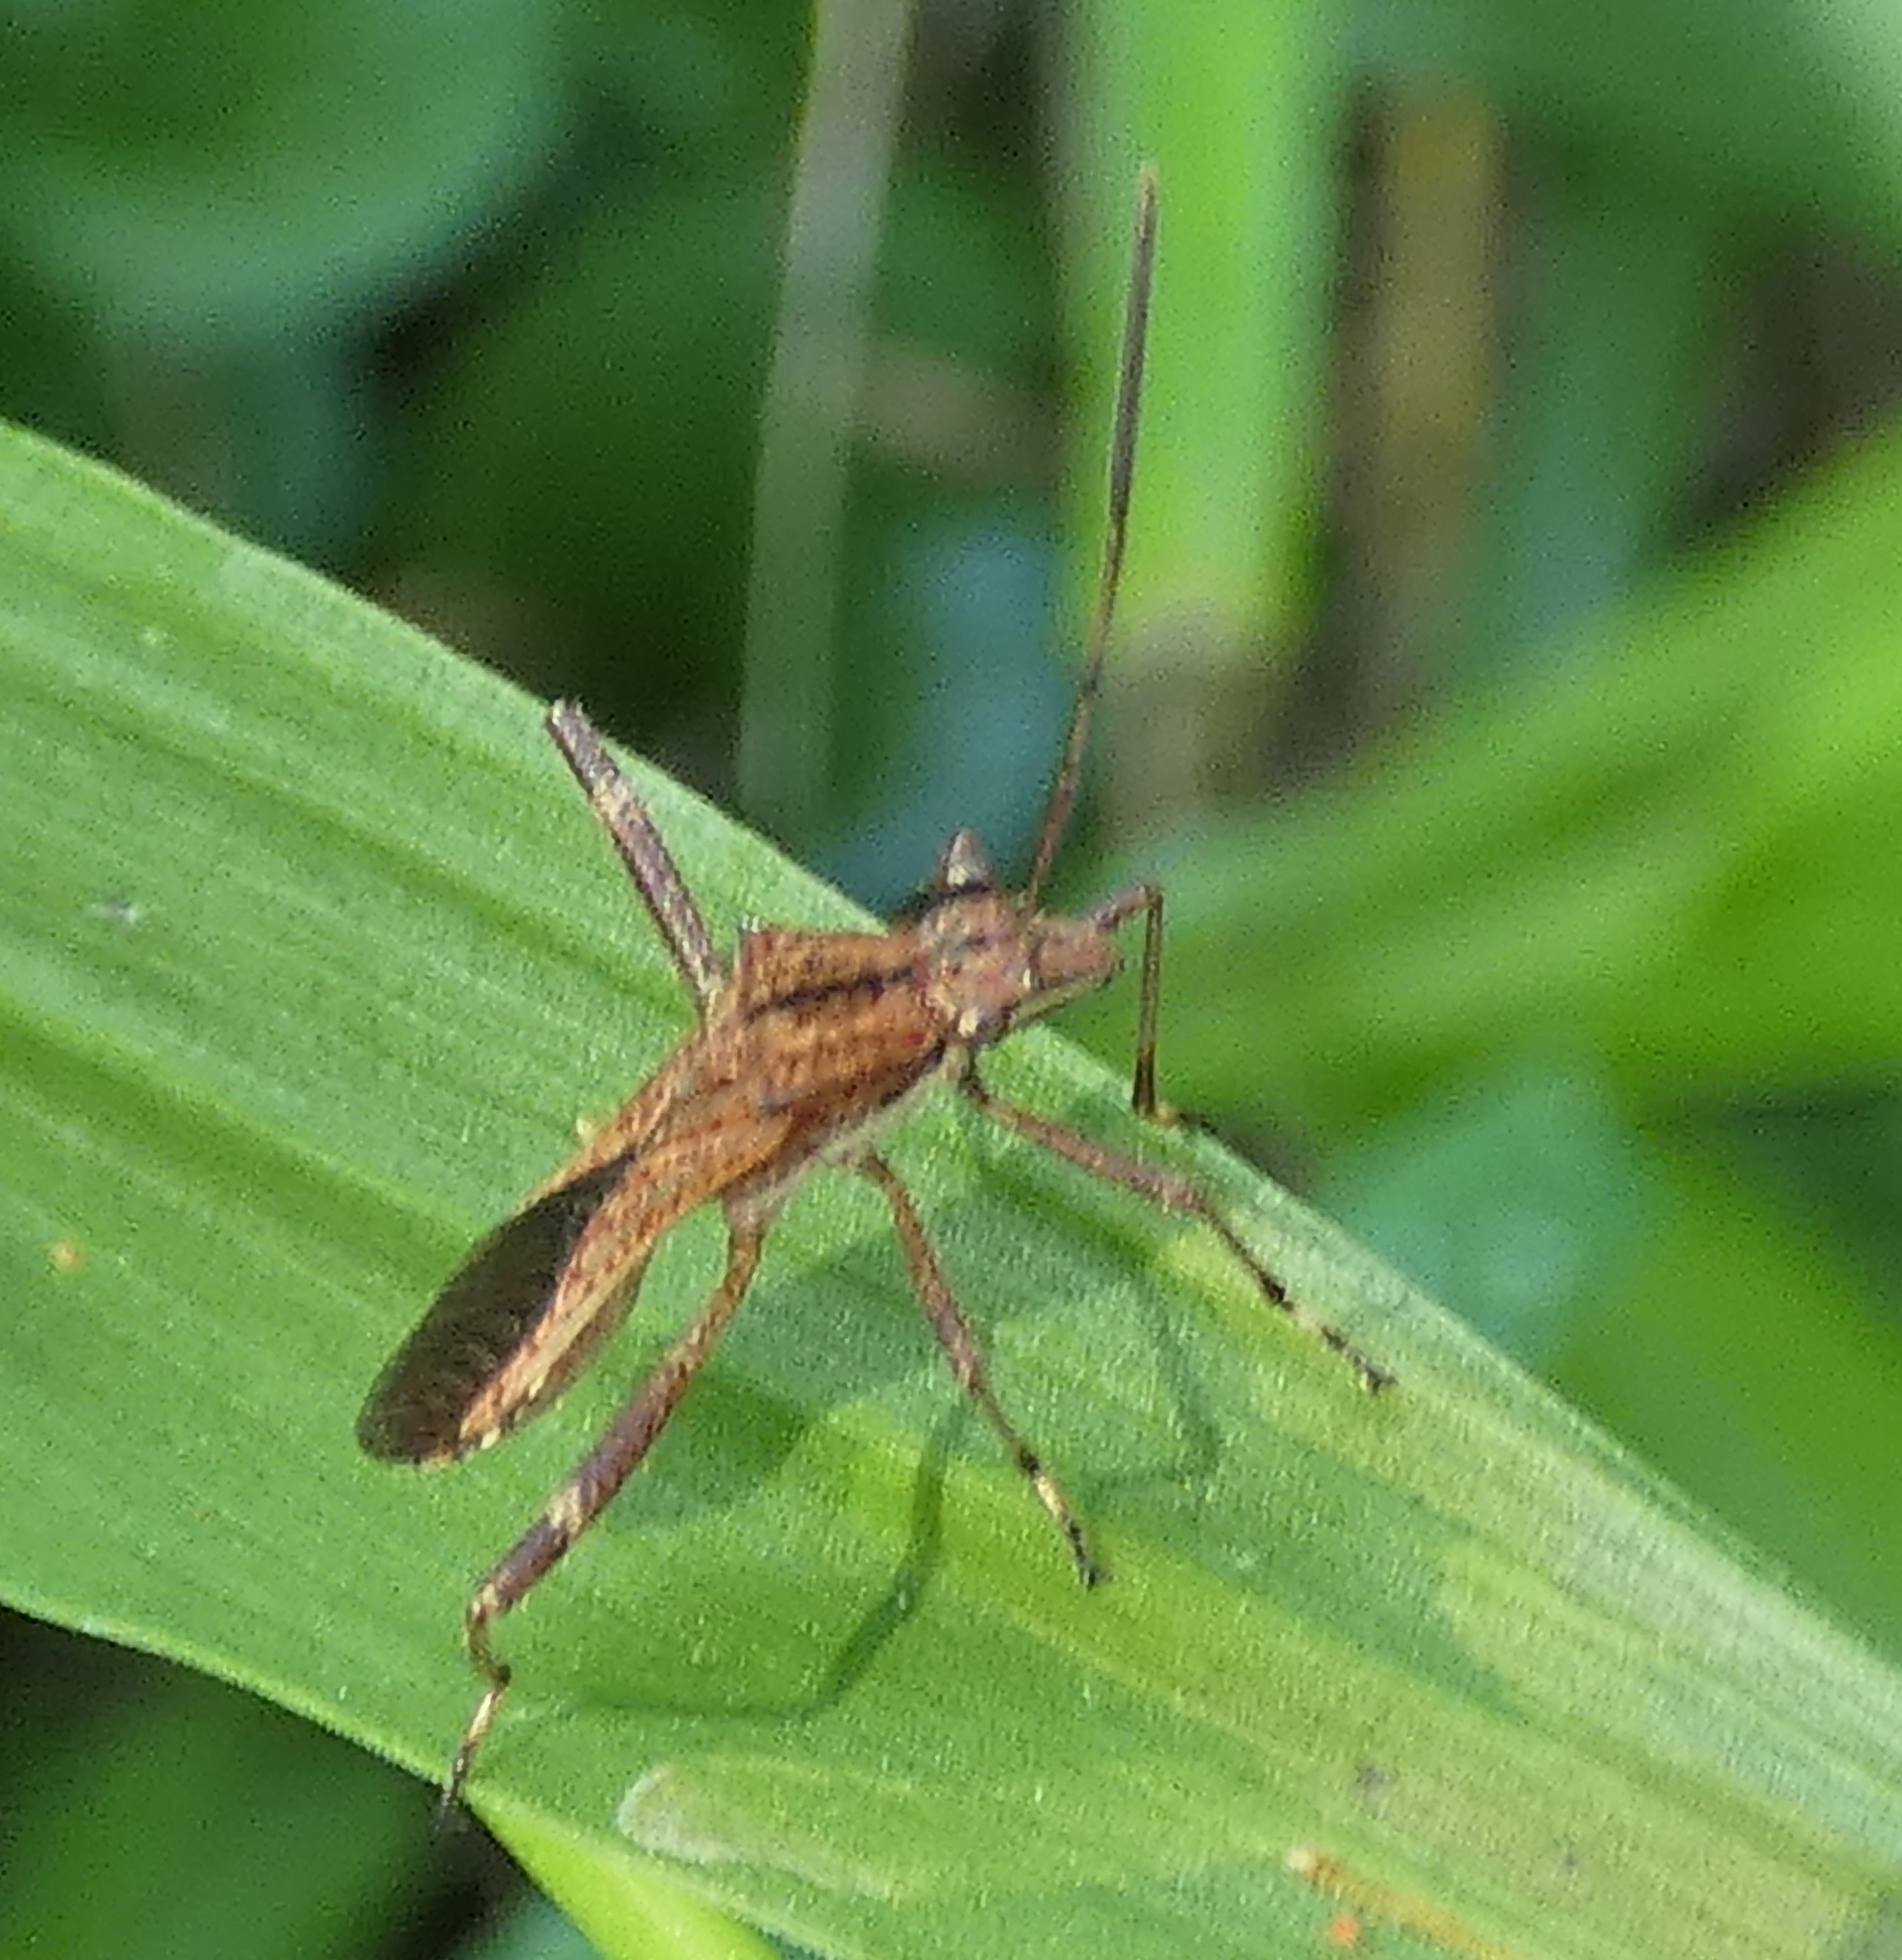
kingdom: Animalia
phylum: Arthropoda
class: Insecta
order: Hemiptera
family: Alydidae
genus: Neomegalotomus
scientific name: Neomegalotomus parvus
